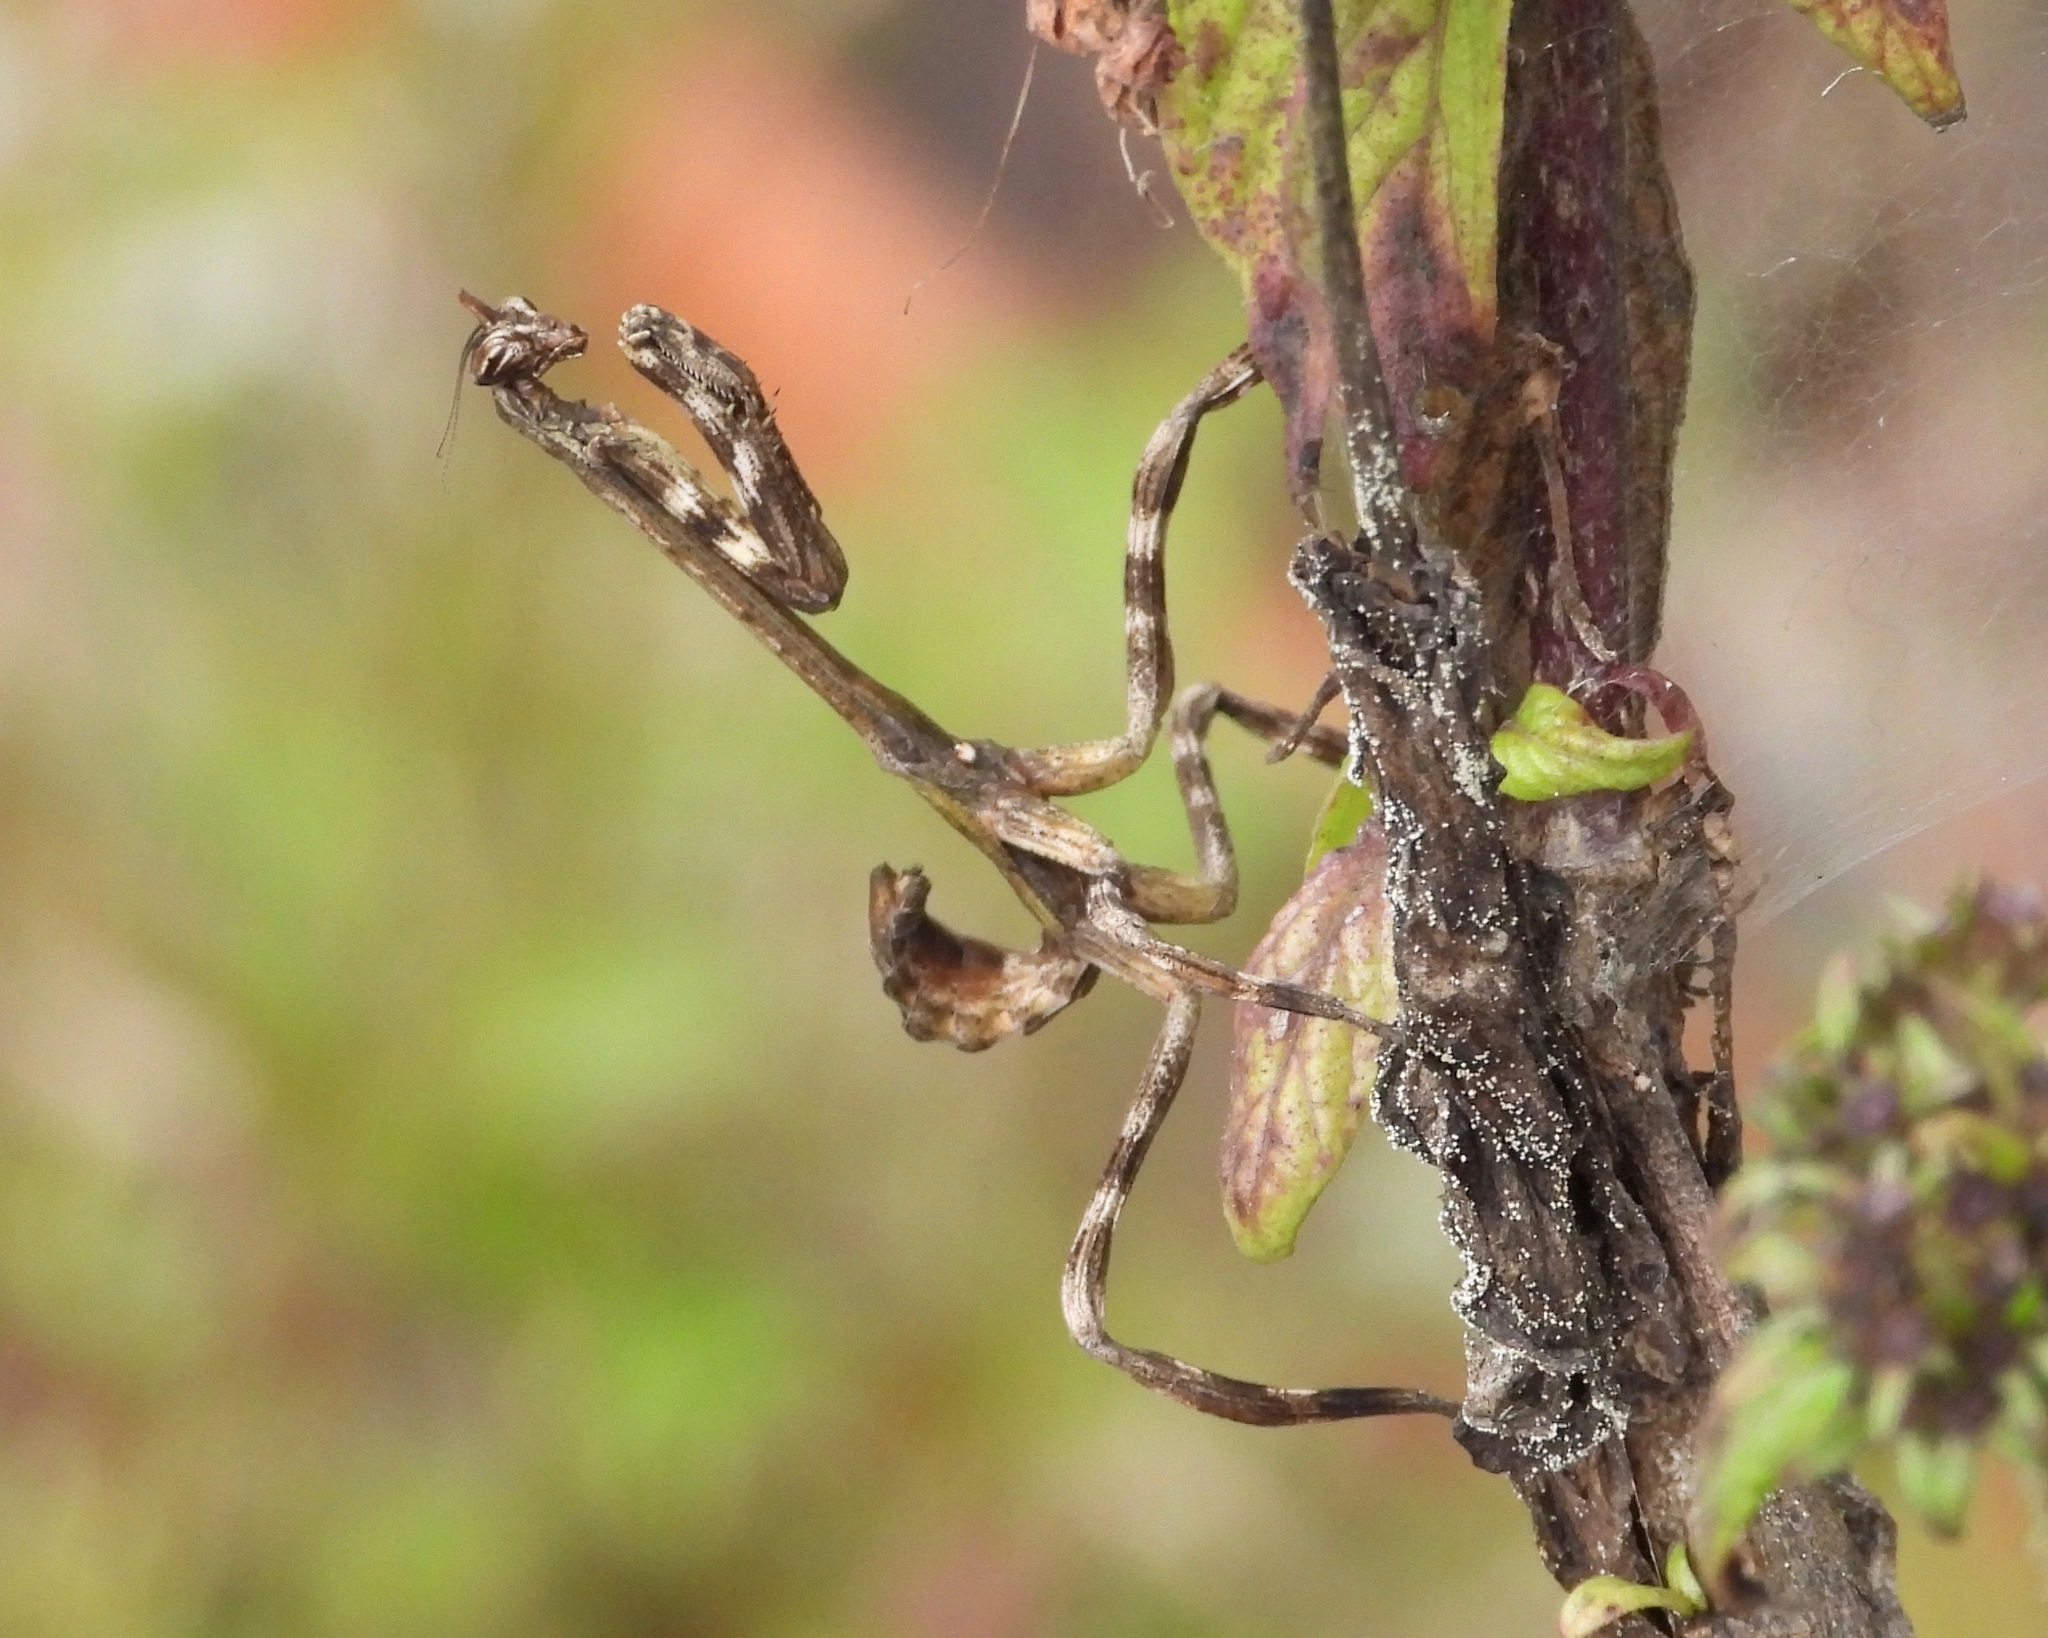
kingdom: Animalia
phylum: Arthropoda
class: Insecta
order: Mantodea
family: Mantidae
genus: Pseudovates
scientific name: Pseudovates chlorophaea
